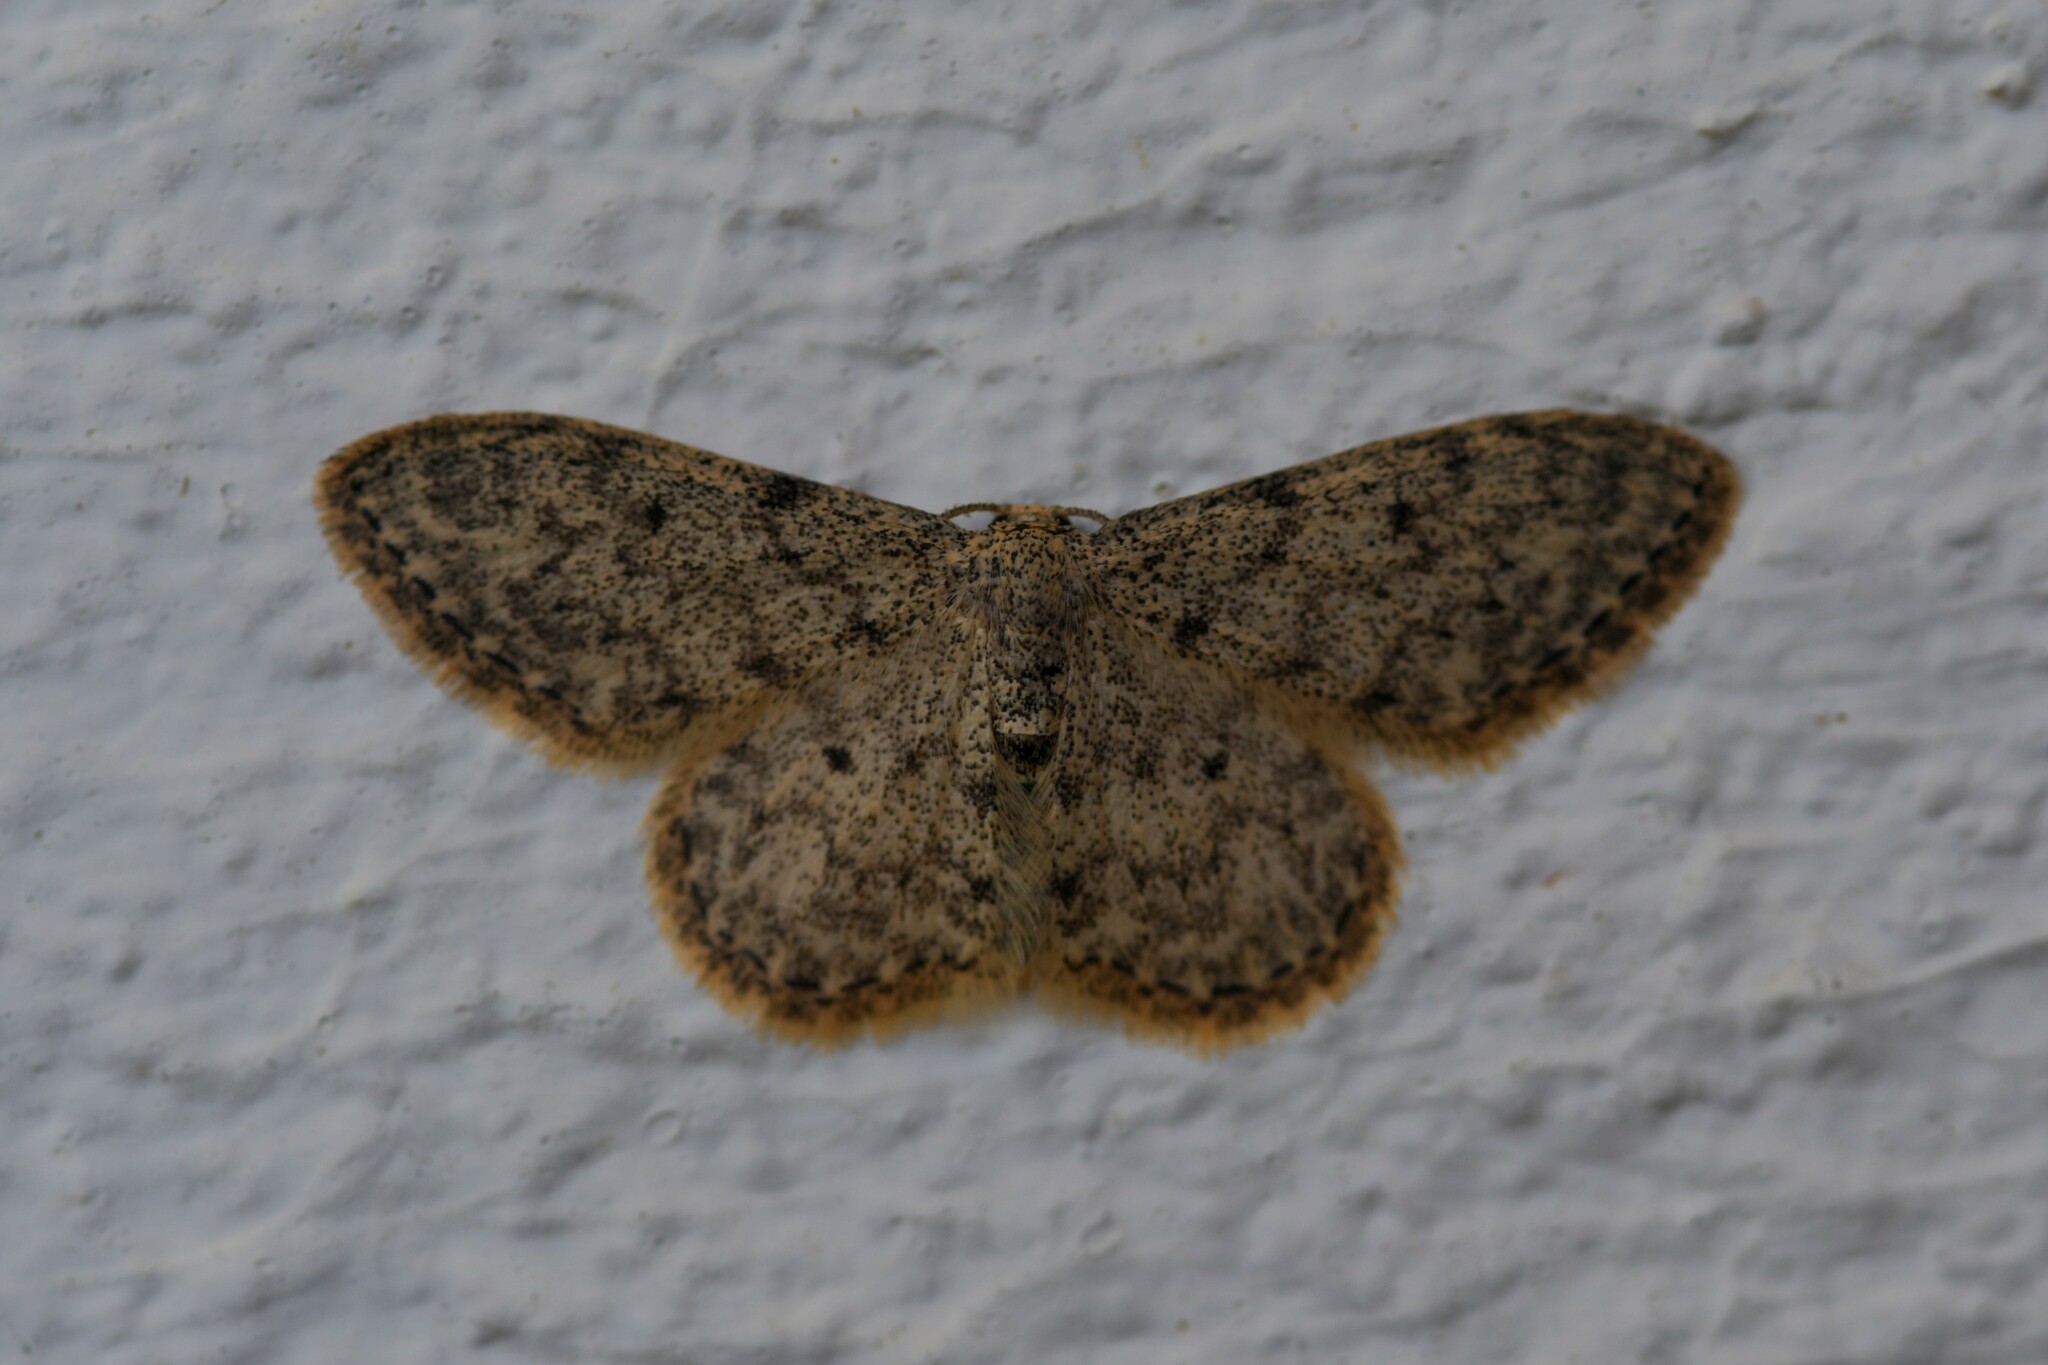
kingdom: Animalia
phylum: Arthropoda
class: Insecta
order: Lepidoptera
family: Geometridae
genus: Idaea
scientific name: Idaea cervantaria
